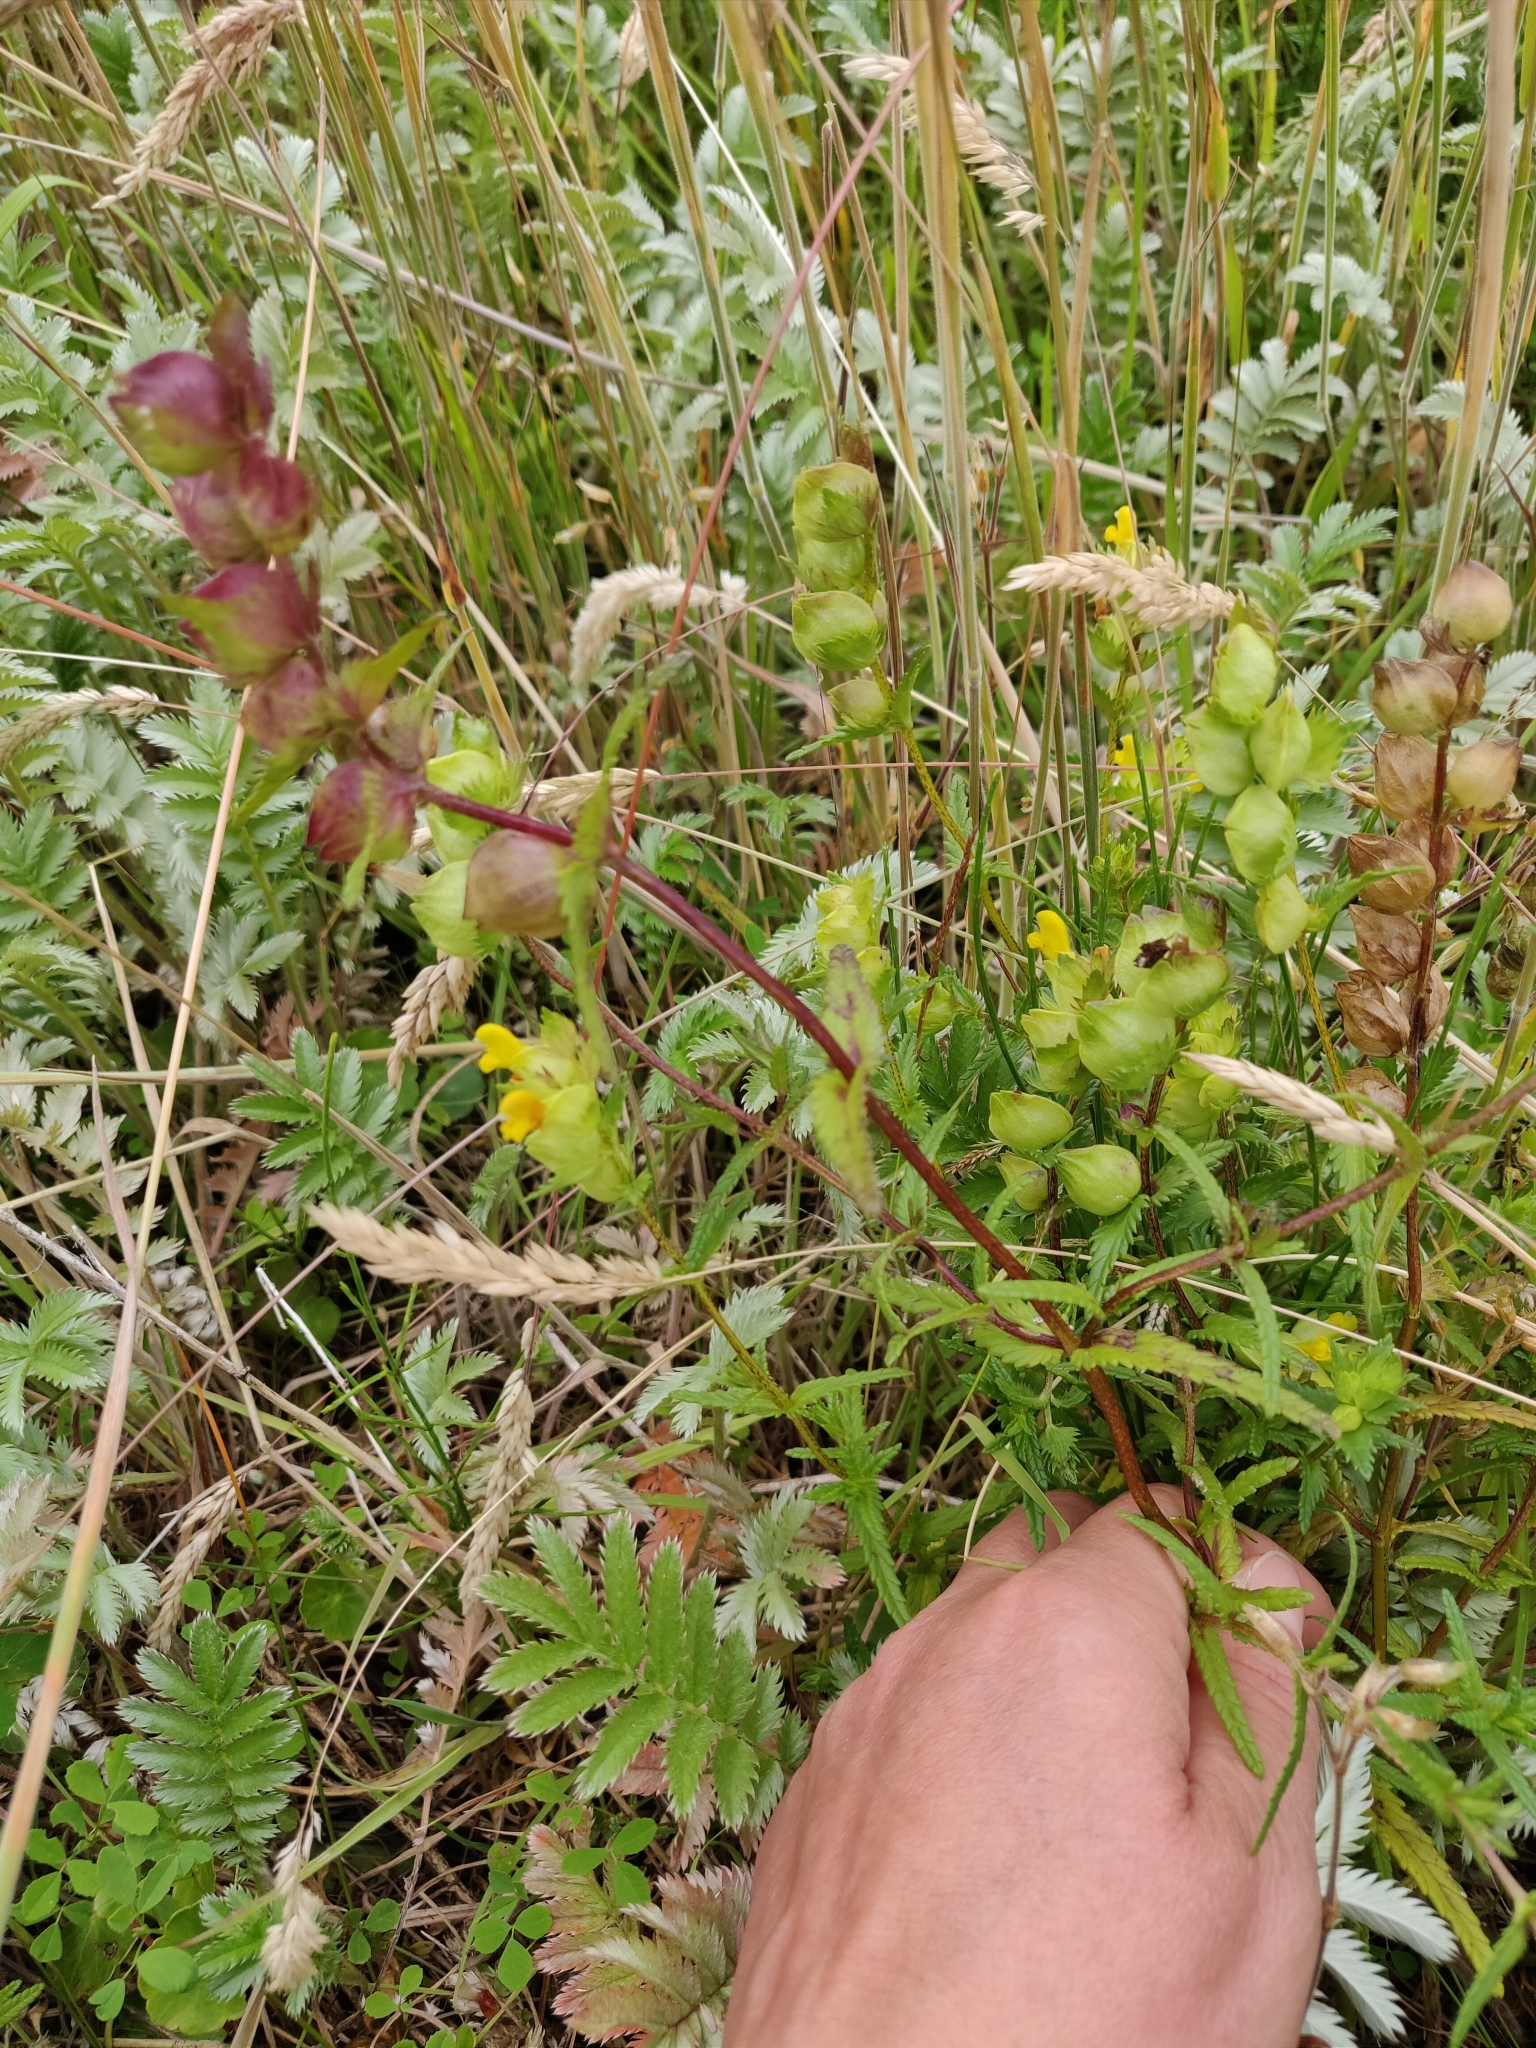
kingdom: Plantae
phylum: Tracheophyta
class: Magnoliopsida
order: Lamiales
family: Orobanchaceae
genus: Rhinanthus
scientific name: Rhinanthus minor
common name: Yellow-rattle
